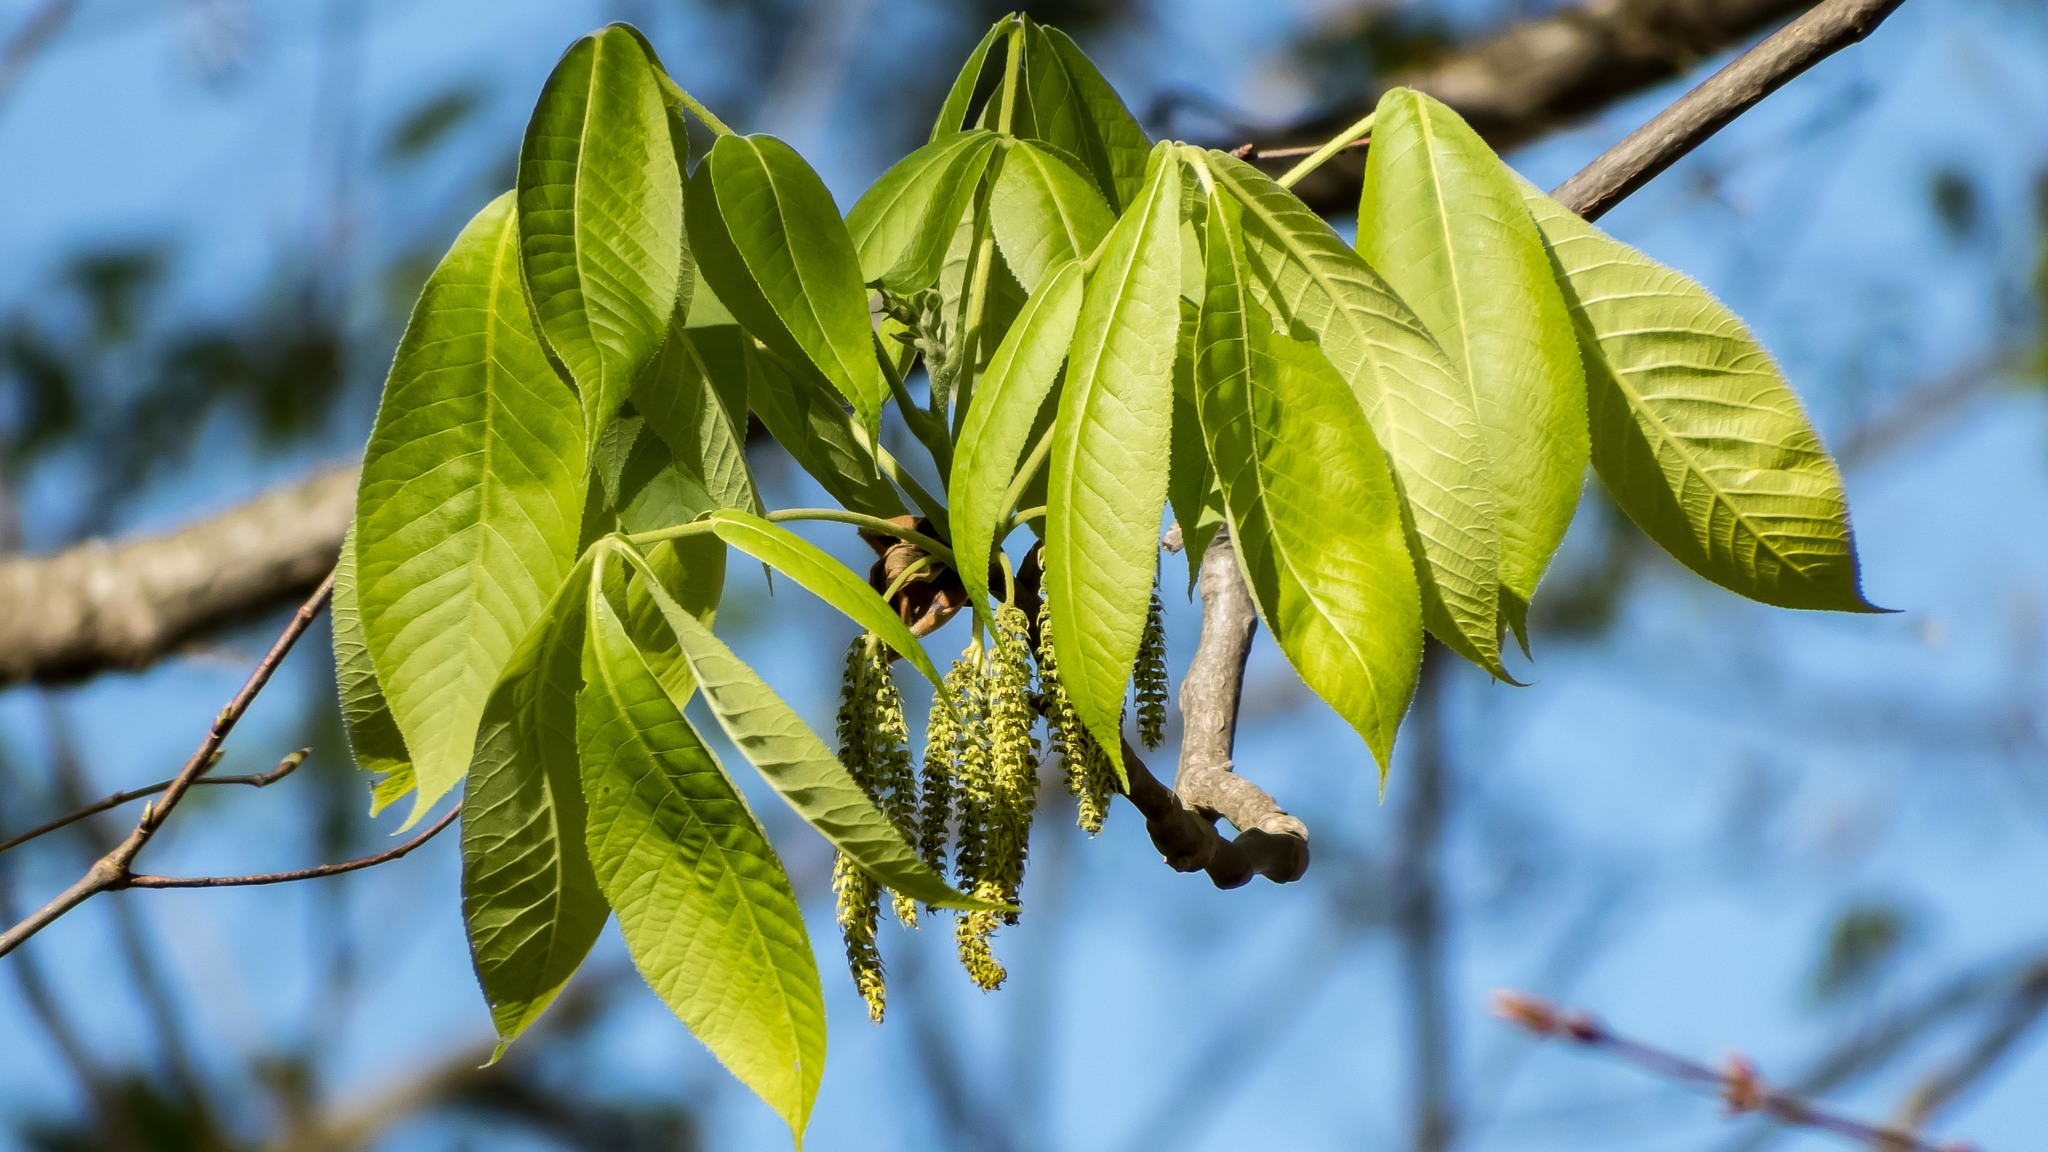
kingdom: Plantae
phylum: Tracheophyta
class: Magnoliopsida
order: Fagales
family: Juglandaceae
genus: Carya
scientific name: Carya ovata
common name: Shagbark hickory
